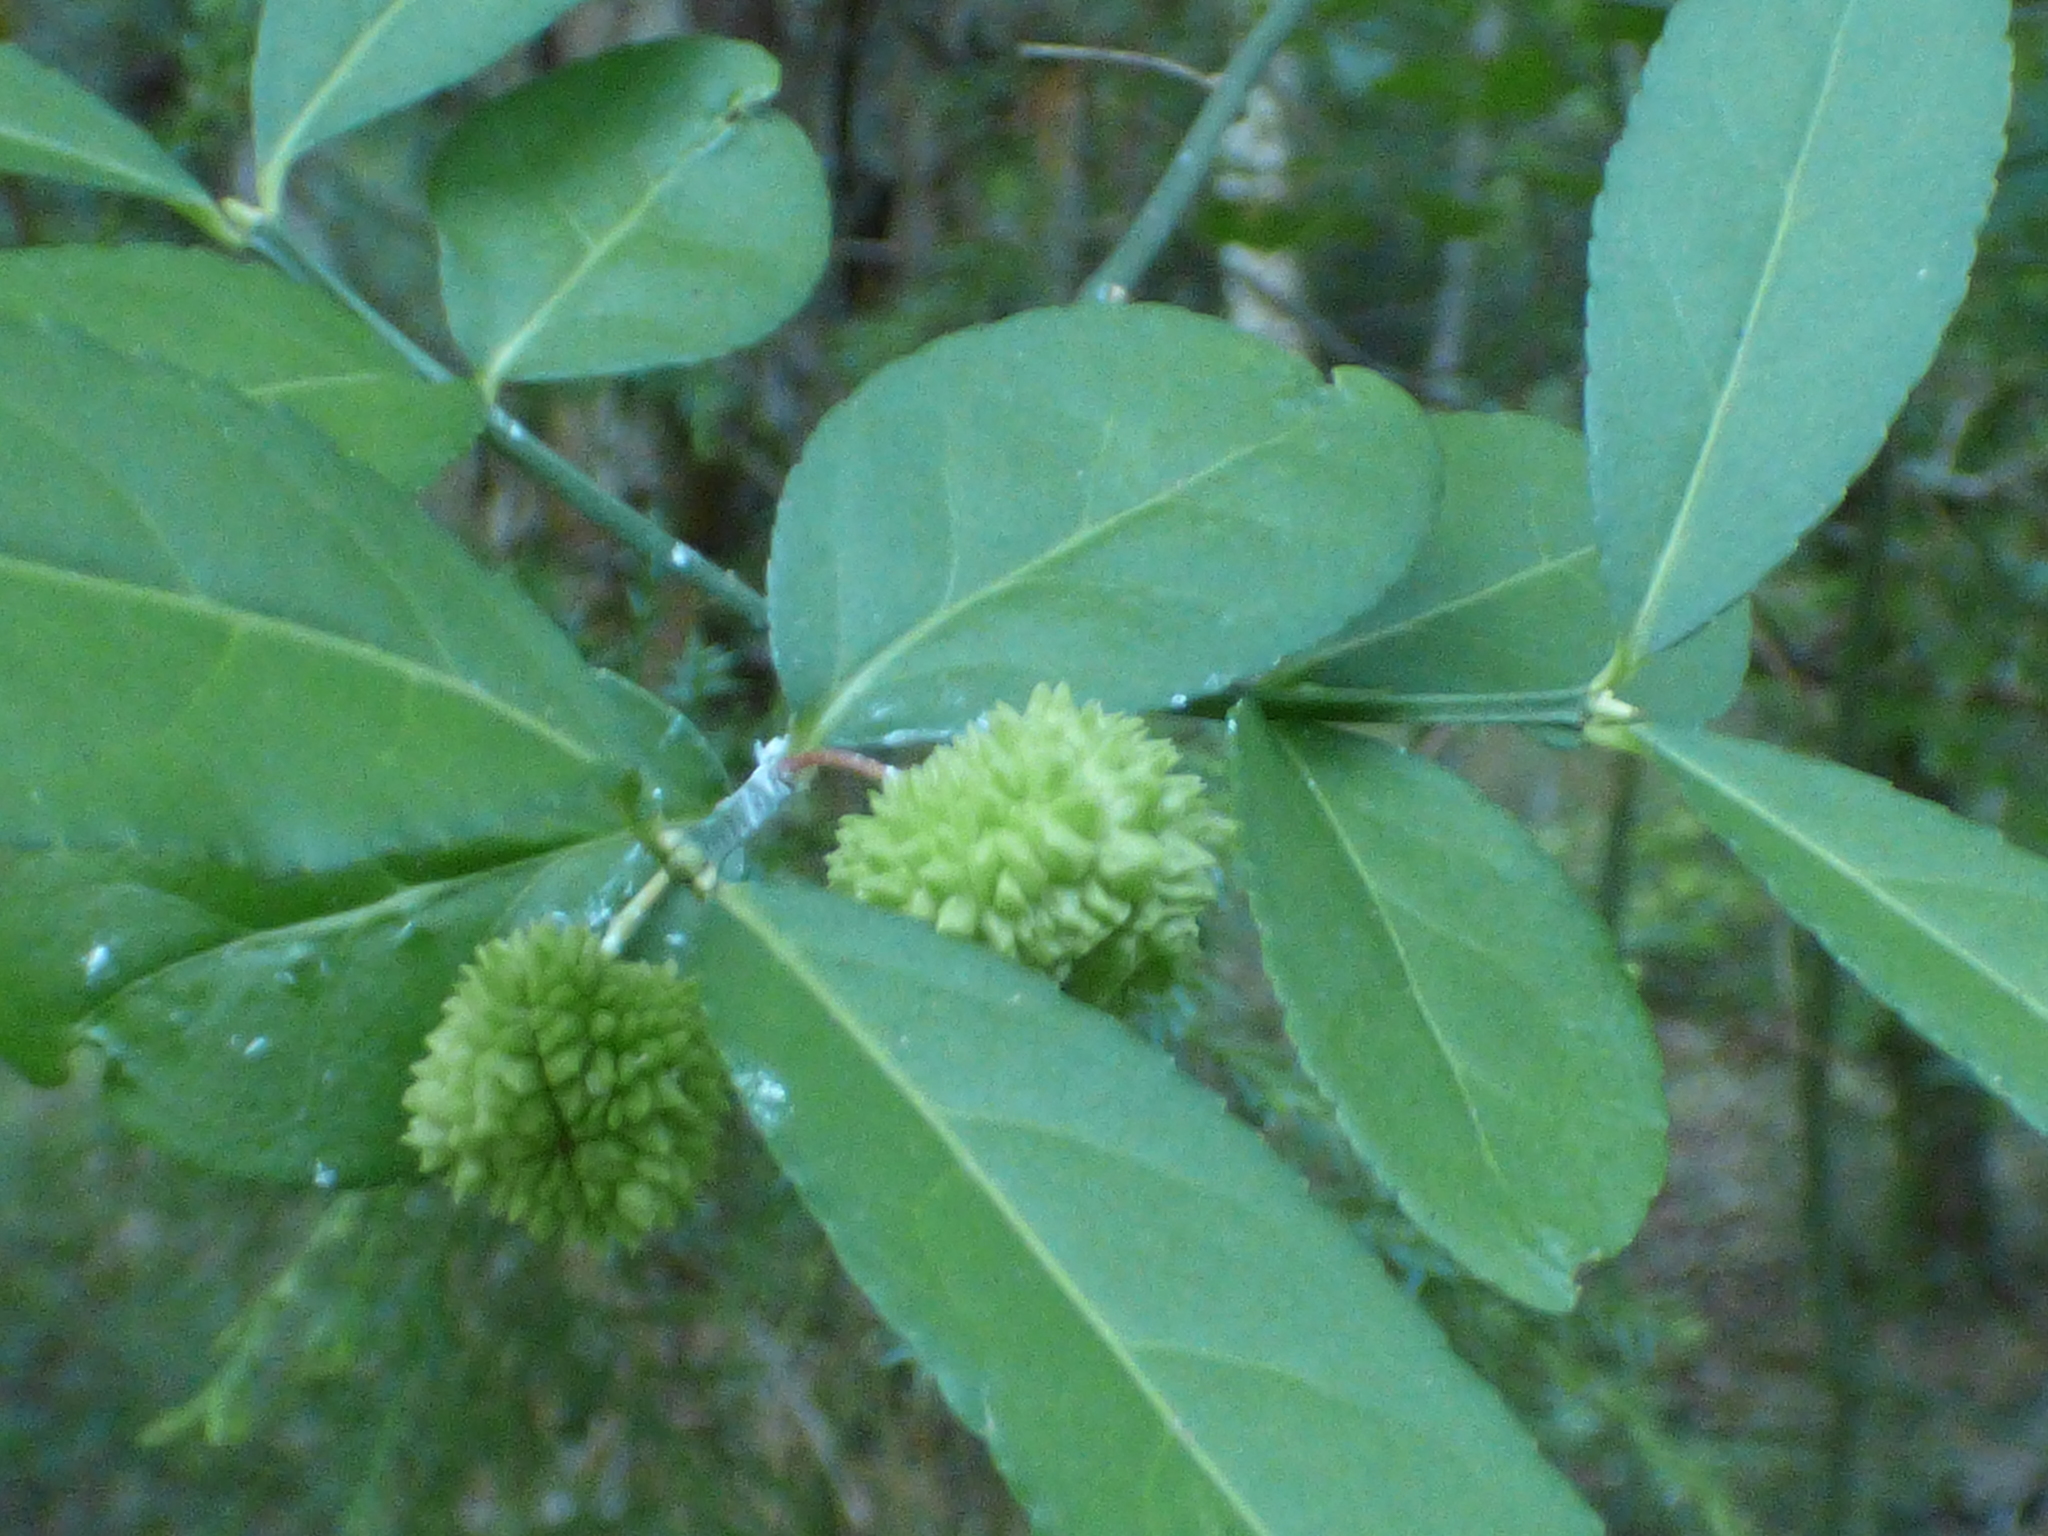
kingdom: Plantae
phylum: Tracheophyta
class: Magnoliopsida
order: Celastrales
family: Celastraceae
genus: Euonymus
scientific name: Euonymus americanus
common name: Bursting-heart
